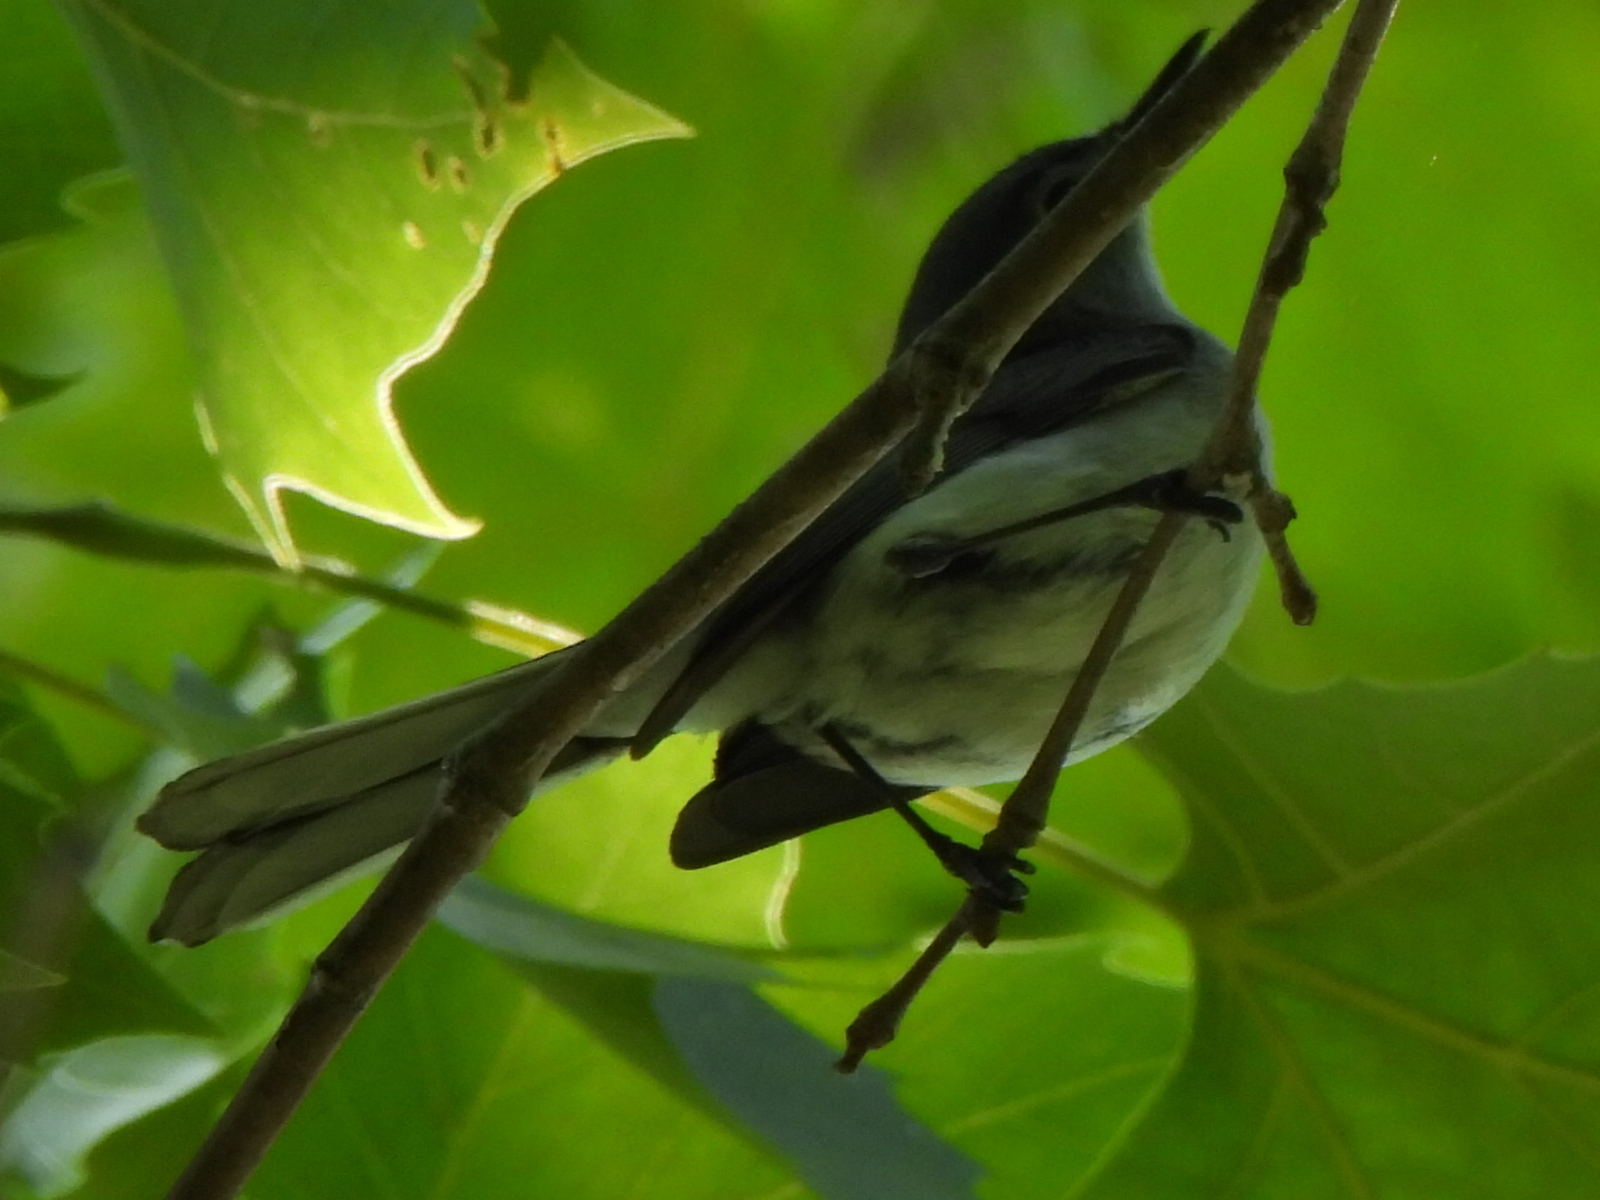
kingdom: Animalia
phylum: Chordata
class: Aves
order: Passeriformes
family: Polioptilidae
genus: Polioptila
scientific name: Polioptila caerulea
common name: Blue-gray gnatcatcher
